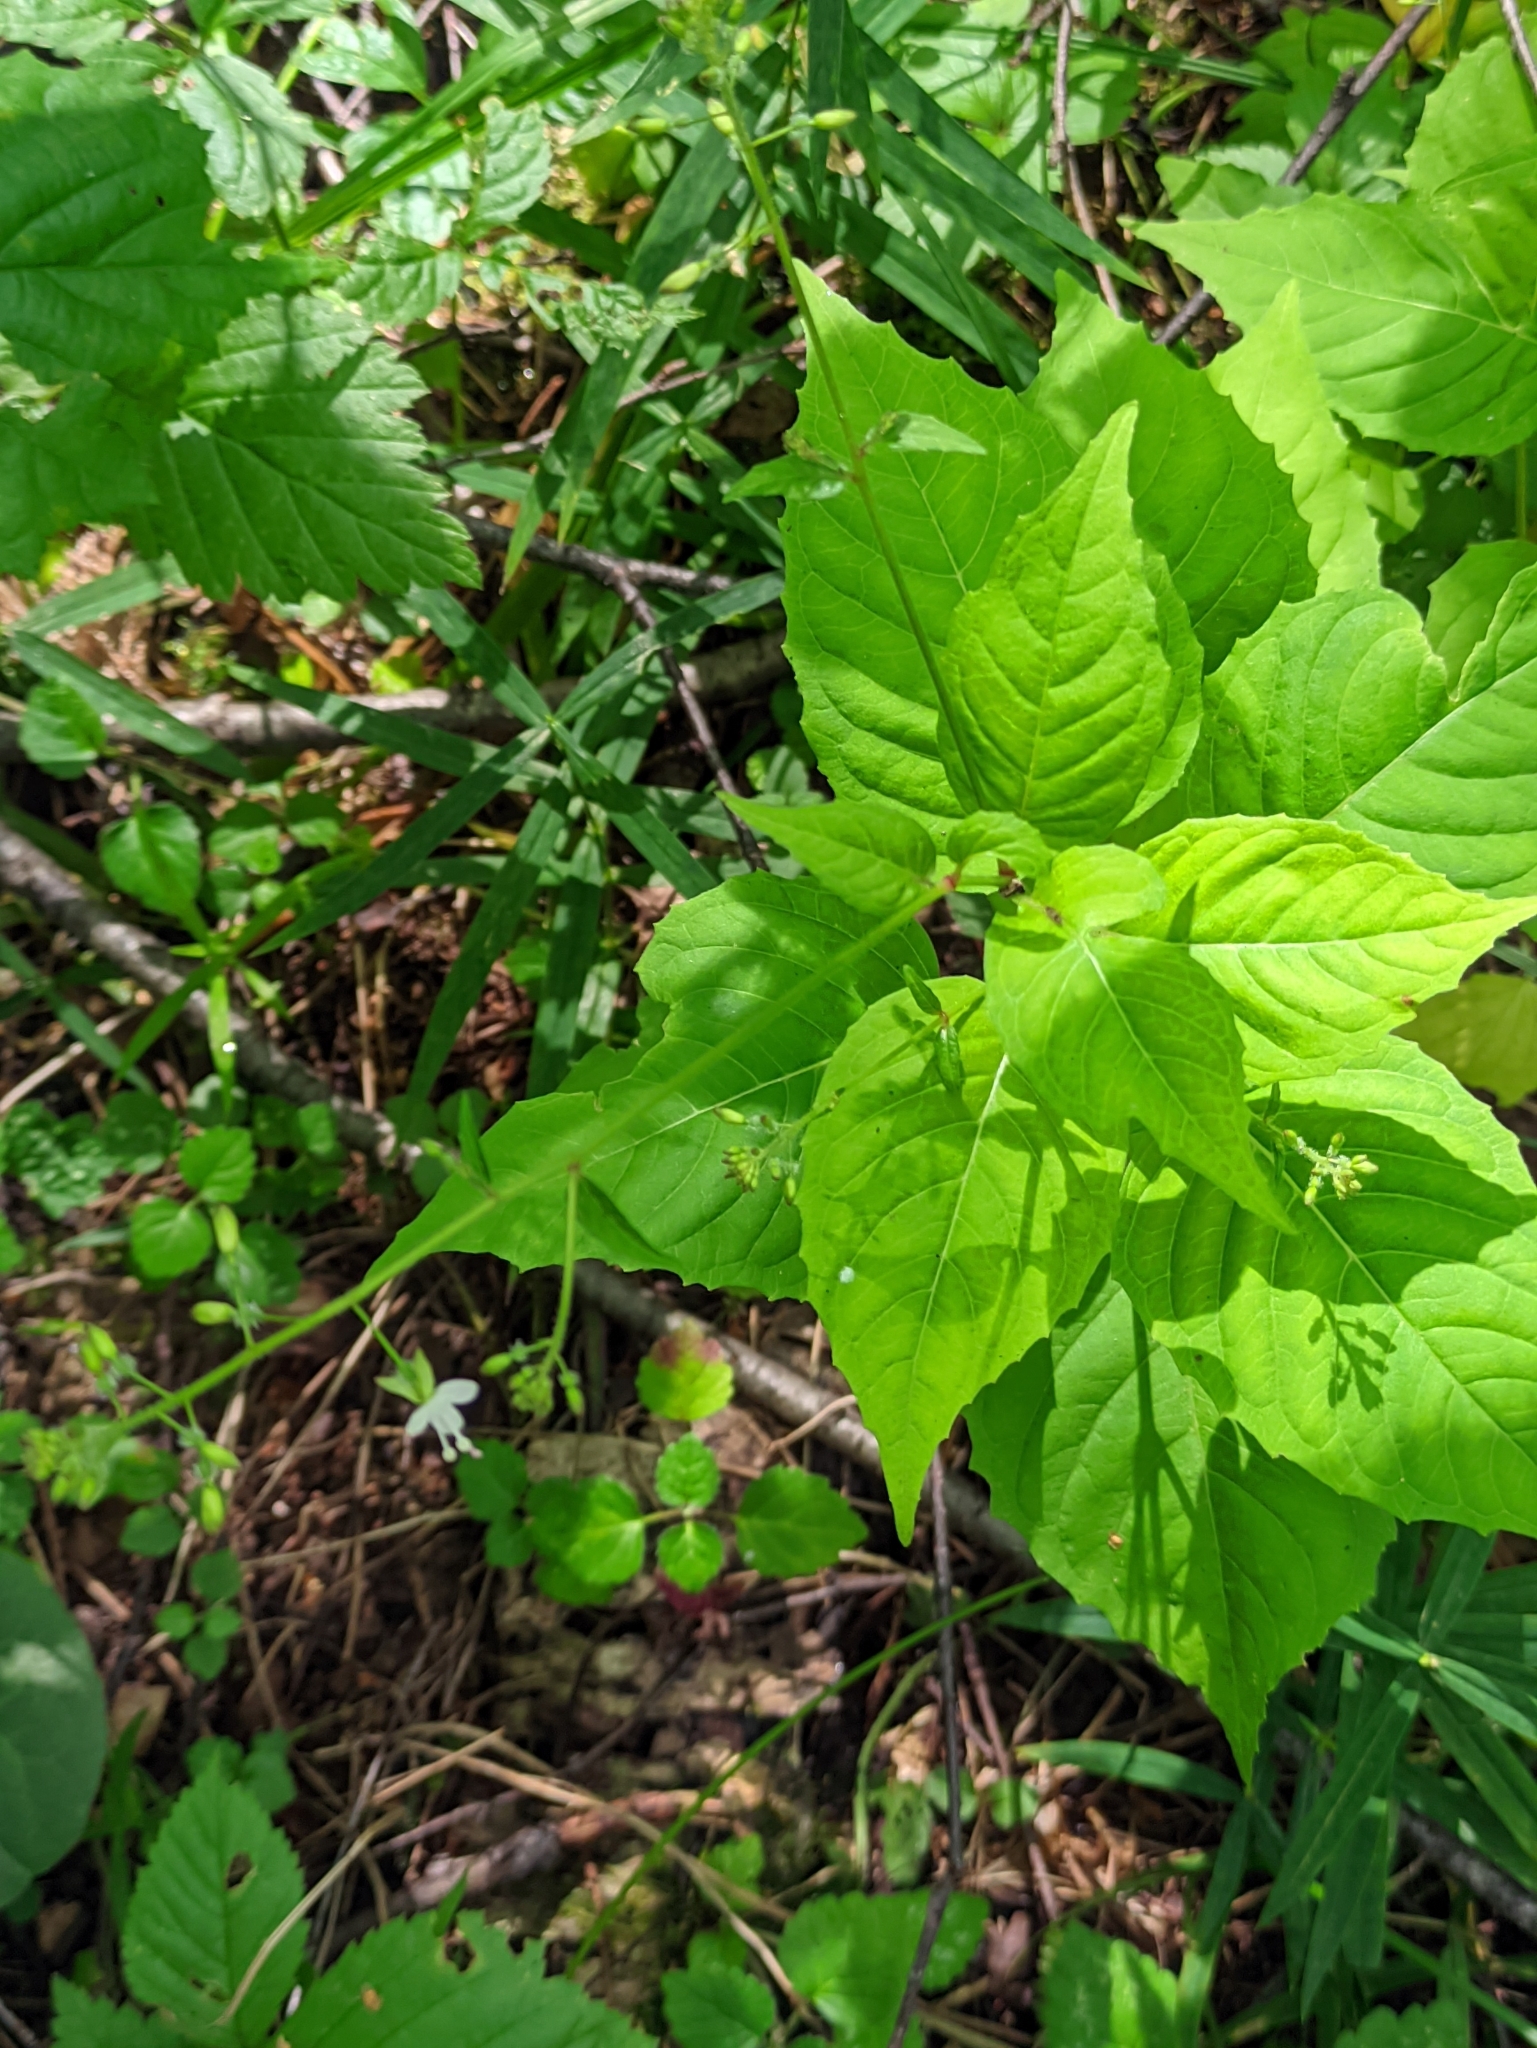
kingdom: Plantae
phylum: Tracheophyta
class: Magnoliopsida
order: Myrtales
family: Onagraceae
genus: Circaea
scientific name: Circaea lutetiana
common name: Enchanter's-nightshade
